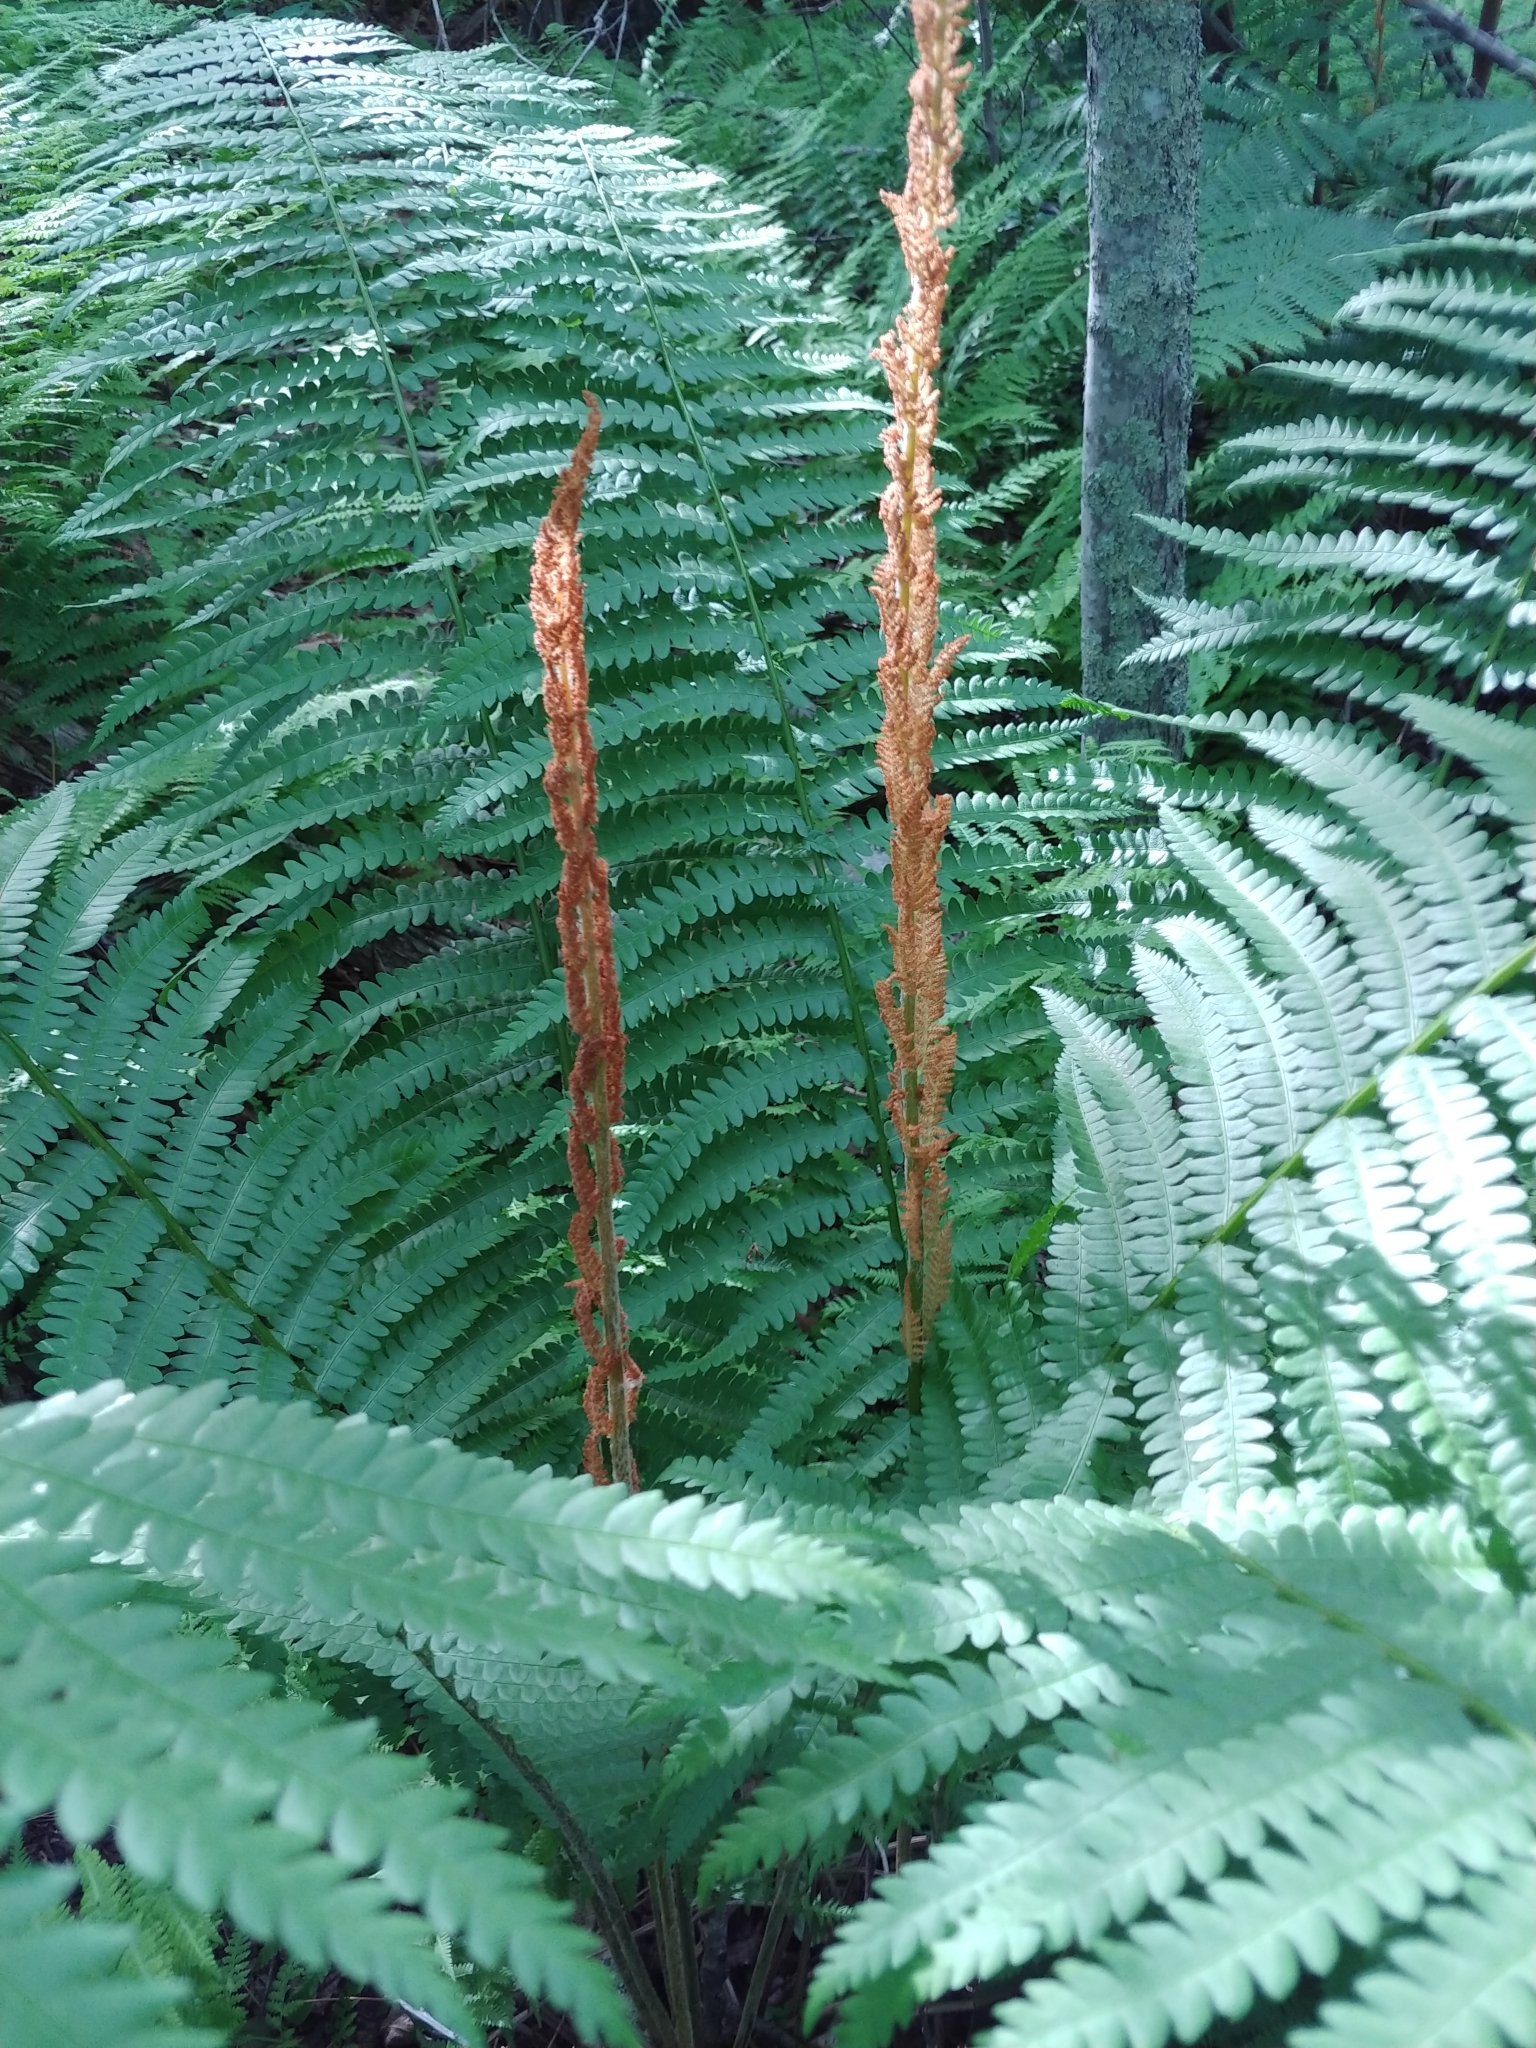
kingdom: Plantae
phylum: Tracheophyta
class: Polypodiopsida
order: Osmundales
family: Osmundaceae
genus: Osmundastrum
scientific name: Osmundastrum cinnamomeum
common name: Cinnamon fern
